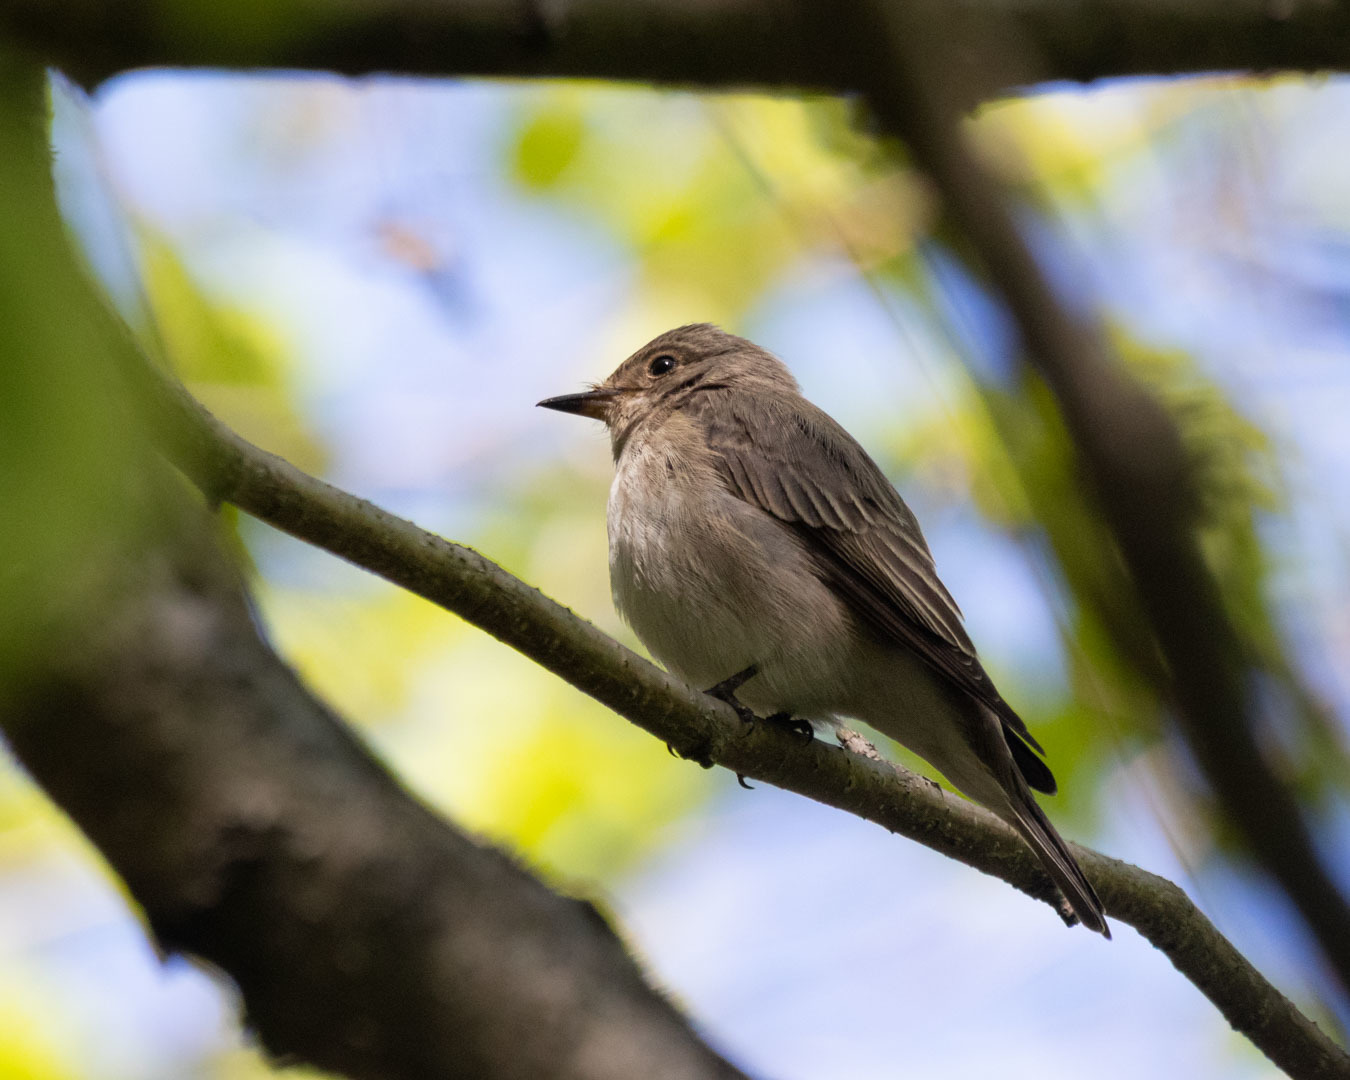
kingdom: Animalia
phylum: Chordata
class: Aves
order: Passeriformes
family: Muscicapidae
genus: Muscicapa
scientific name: Muscicapa striata
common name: Spotted flycatcher
